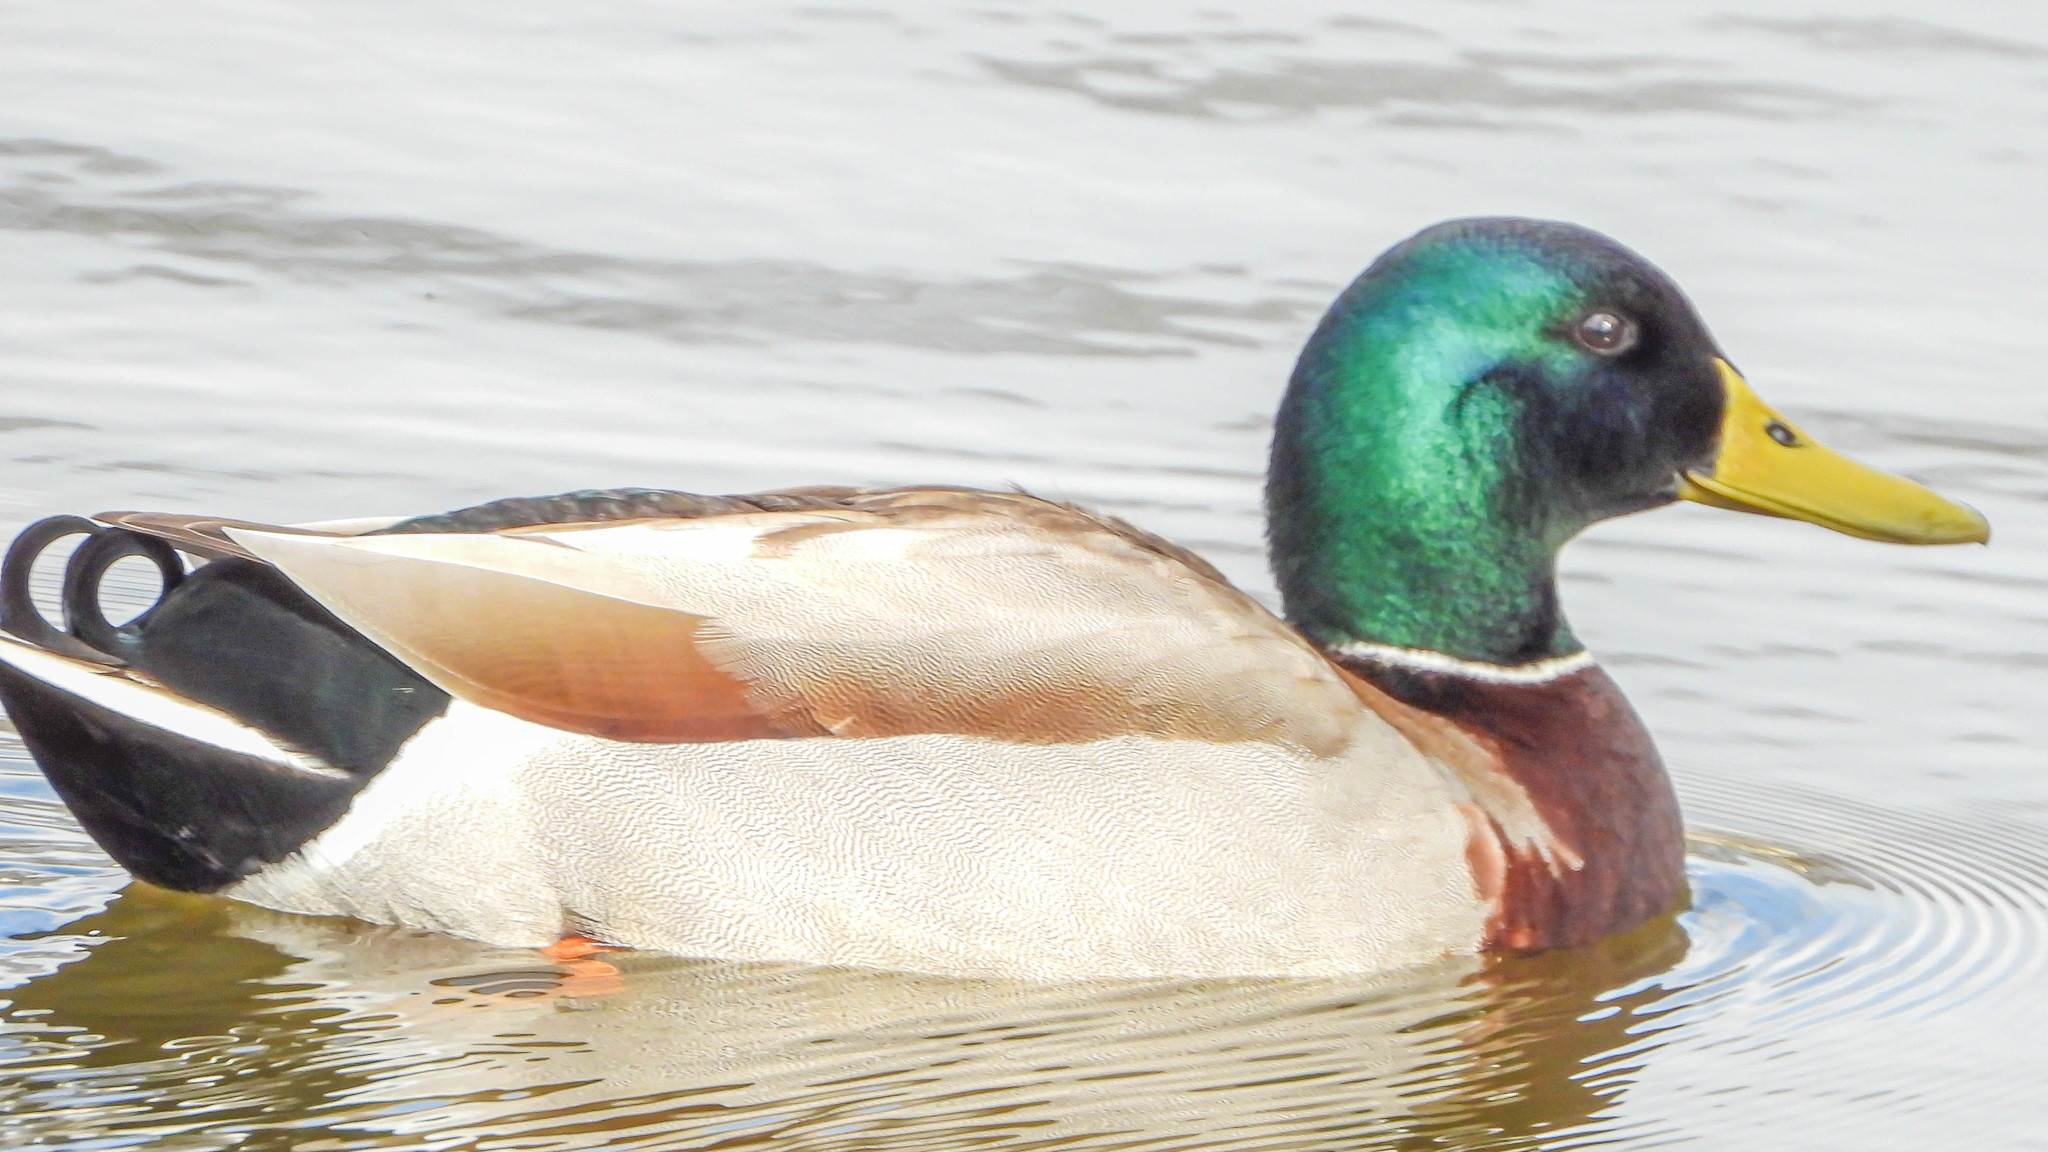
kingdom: Animalia
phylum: Chordata
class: Aves
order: Anseriformes
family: Anatidae
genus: Anas
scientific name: Anas platyrhynchos
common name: Mallard
